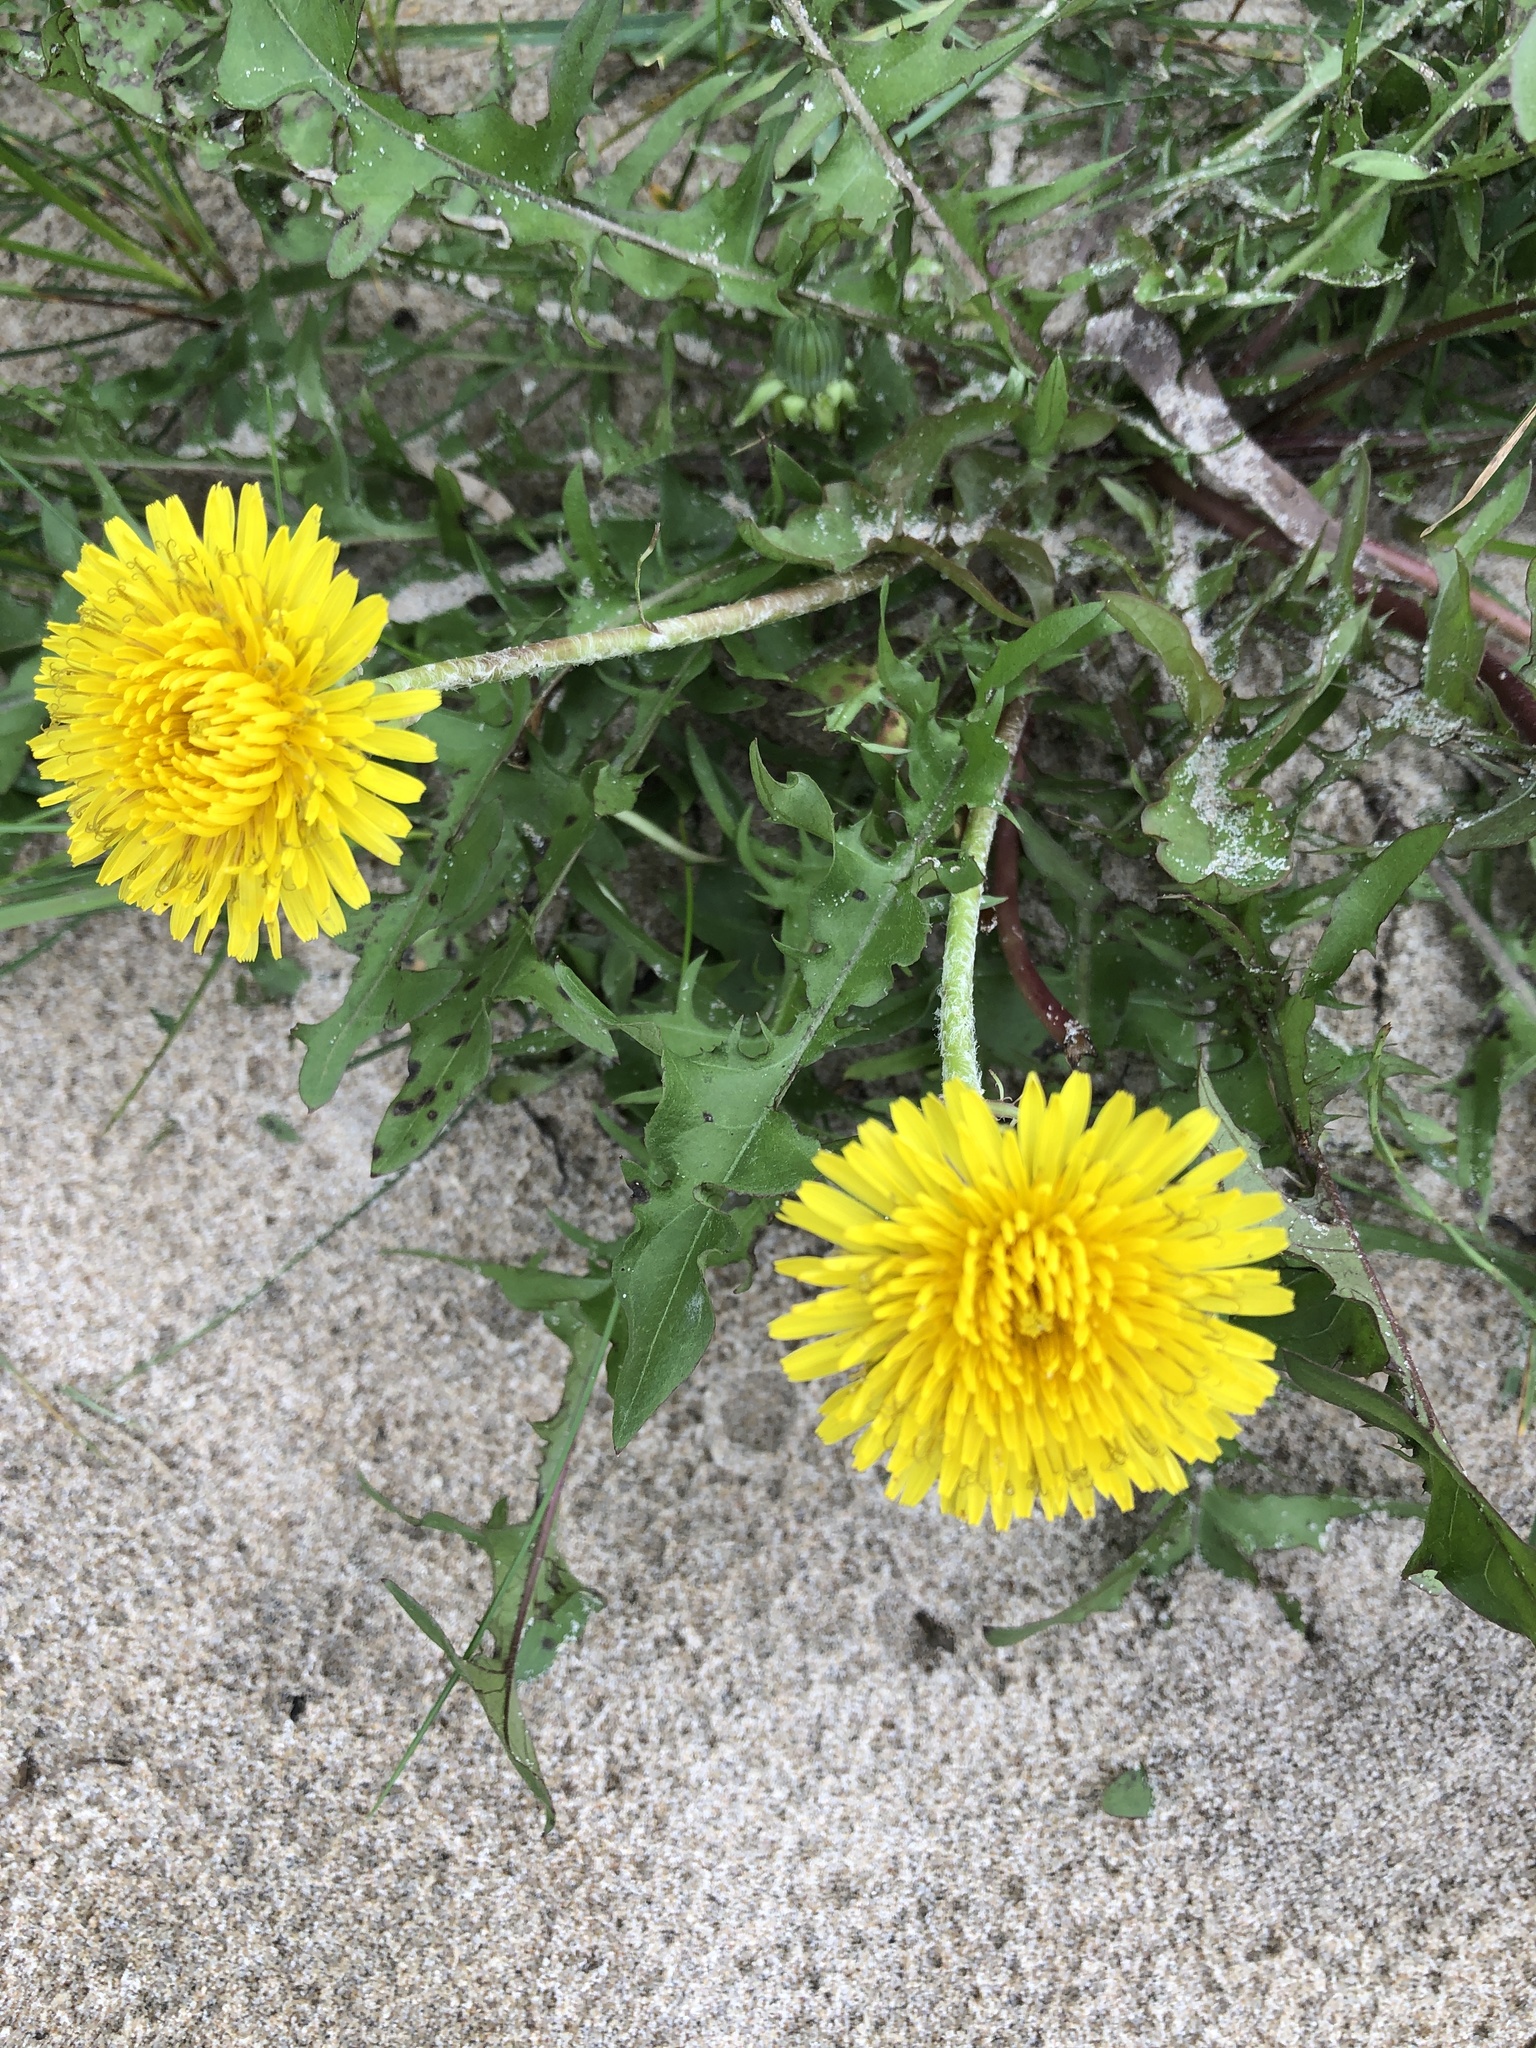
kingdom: Plantae
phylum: Tracheophyta
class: Magnoliopsida
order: Asterales
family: Asteraceae
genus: Taraxacum
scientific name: Taraxacum officinale
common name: Common dandelion
